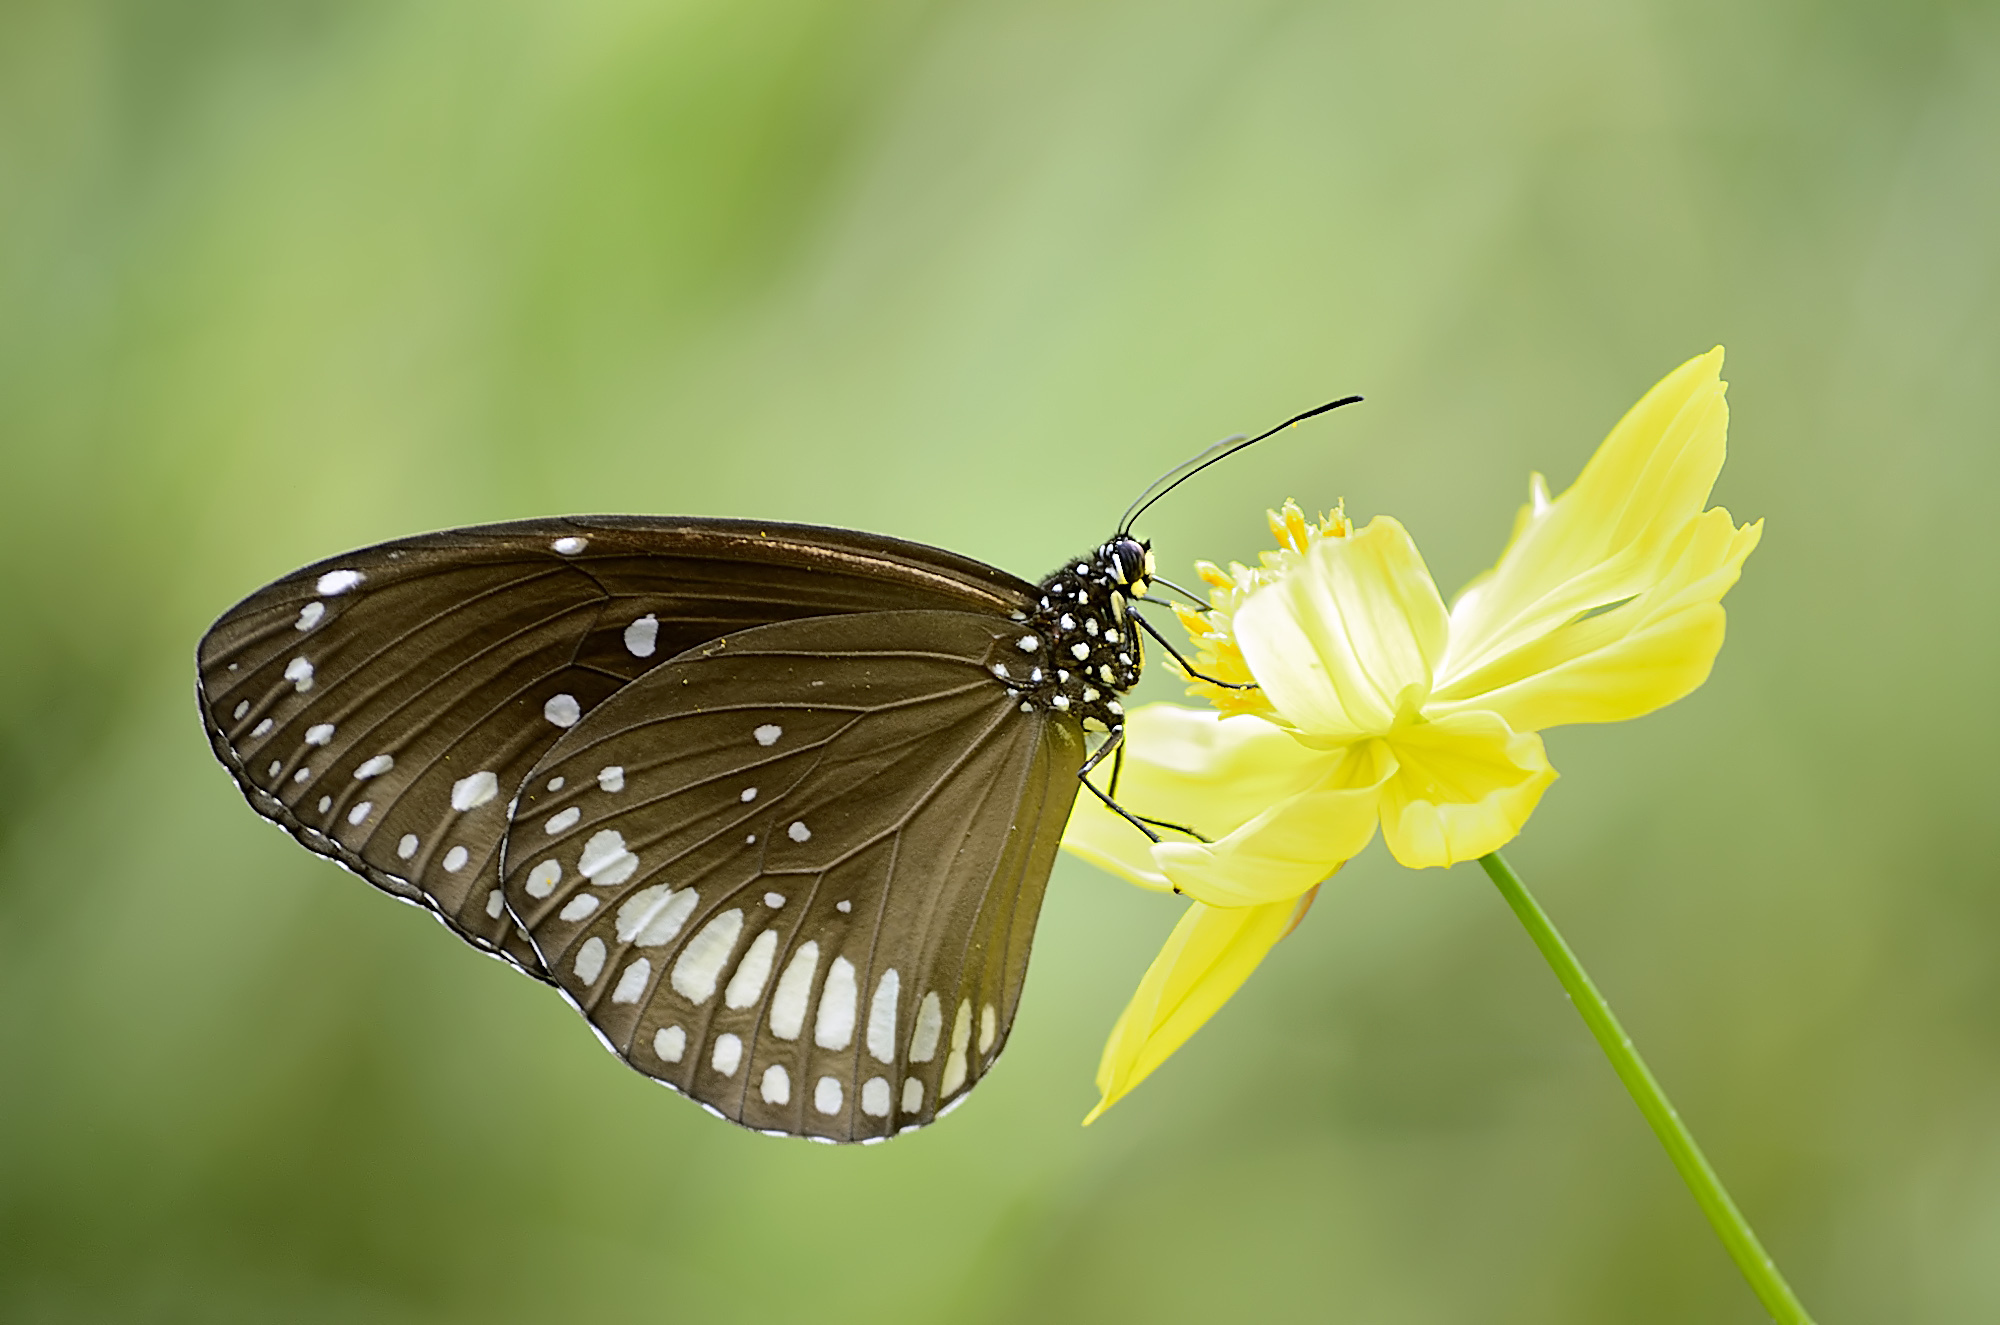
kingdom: Animalia
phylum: Arthropoda
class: Insecta
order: Lepidoptera
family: Nymphalidae
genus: Euploea
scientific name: Euploea core
